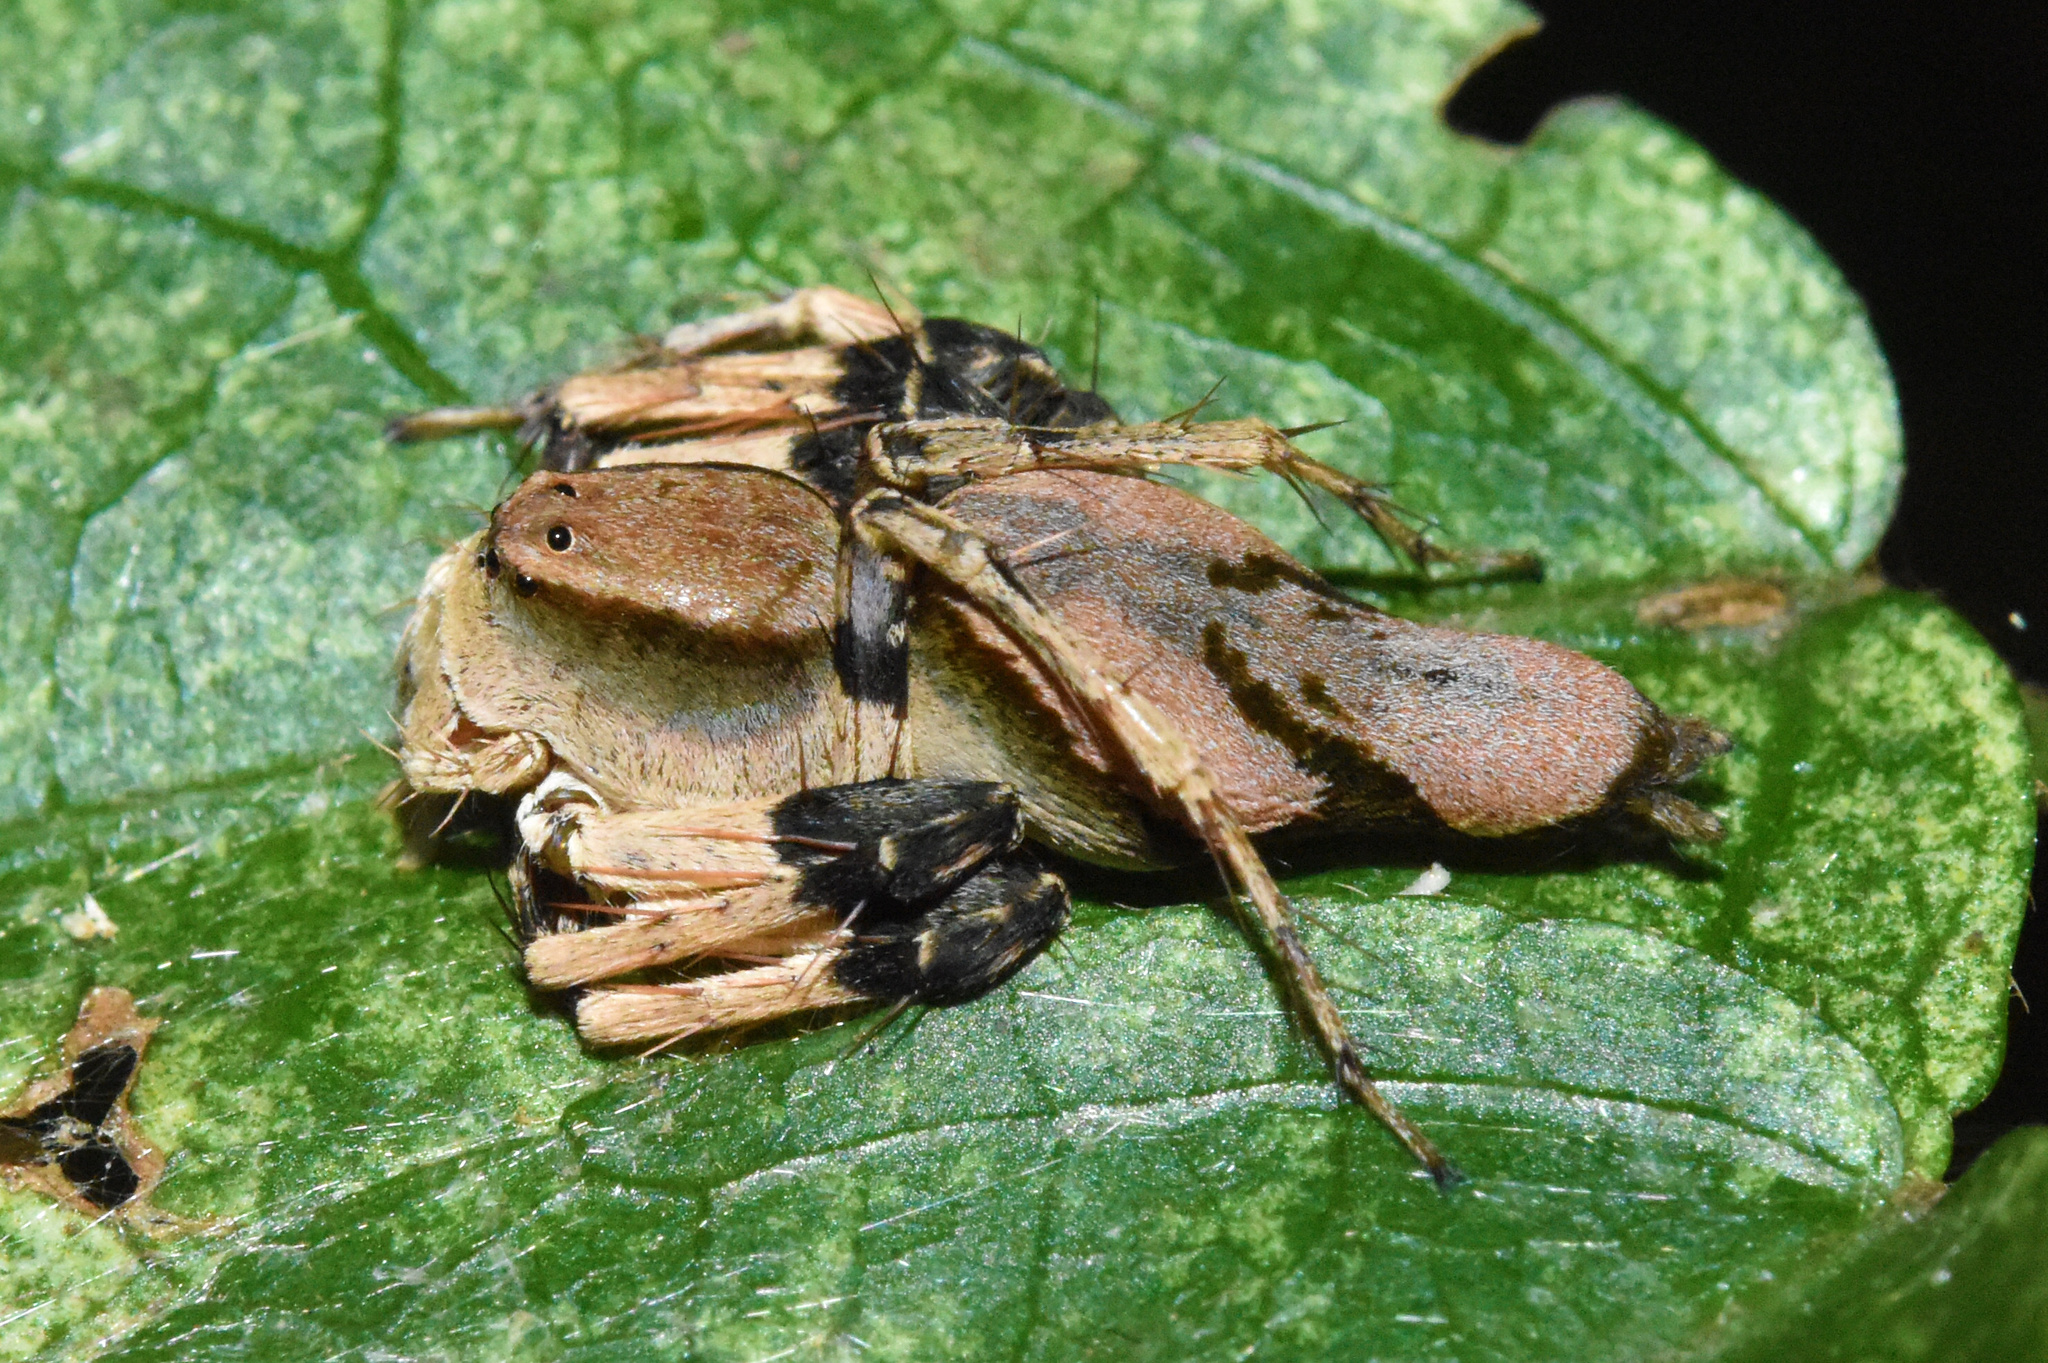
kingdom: Animalia
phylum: Arthropoda
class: Arachnida
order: Araneae
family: Oxyopidae
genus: Oxyopes
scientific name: Oxyopes flavipalpis
